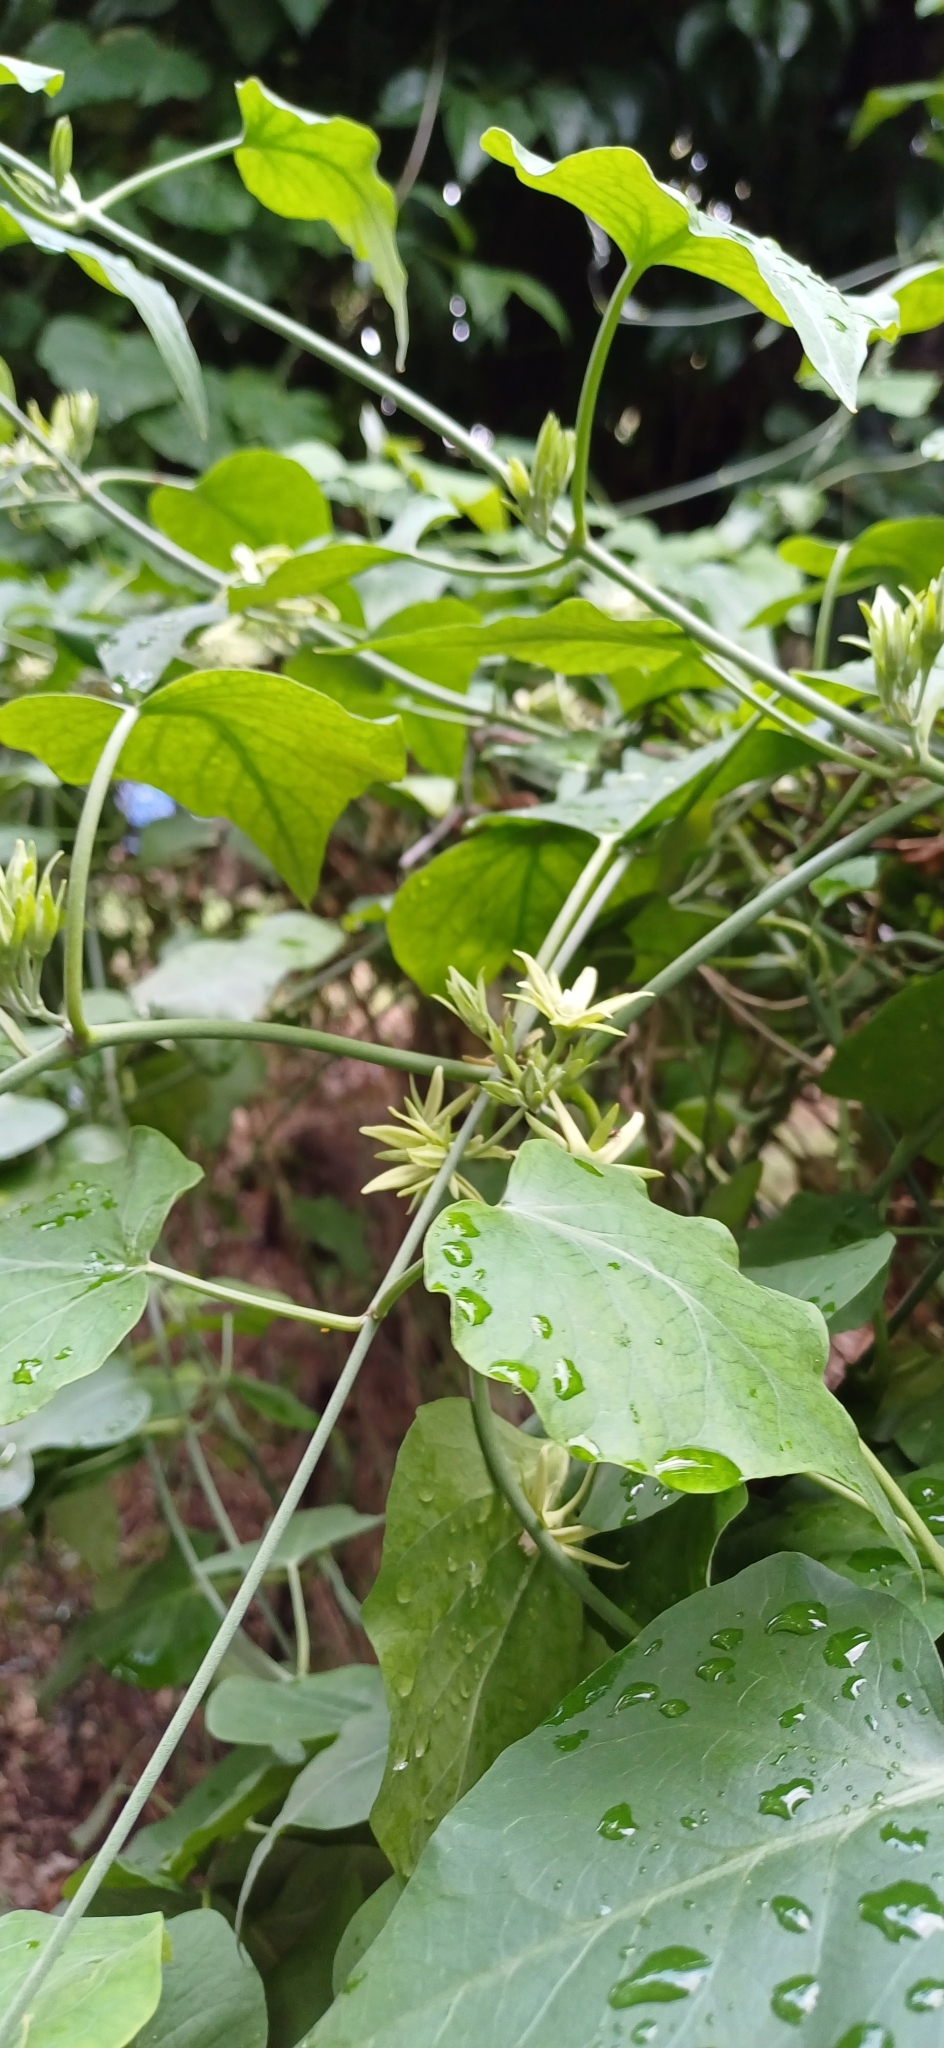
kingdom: Plantae
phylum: Tracheophyta
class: Magnoliopsida
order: Gentianales
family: Apocynaceae
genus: Araujia
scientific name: Araujia odorata
